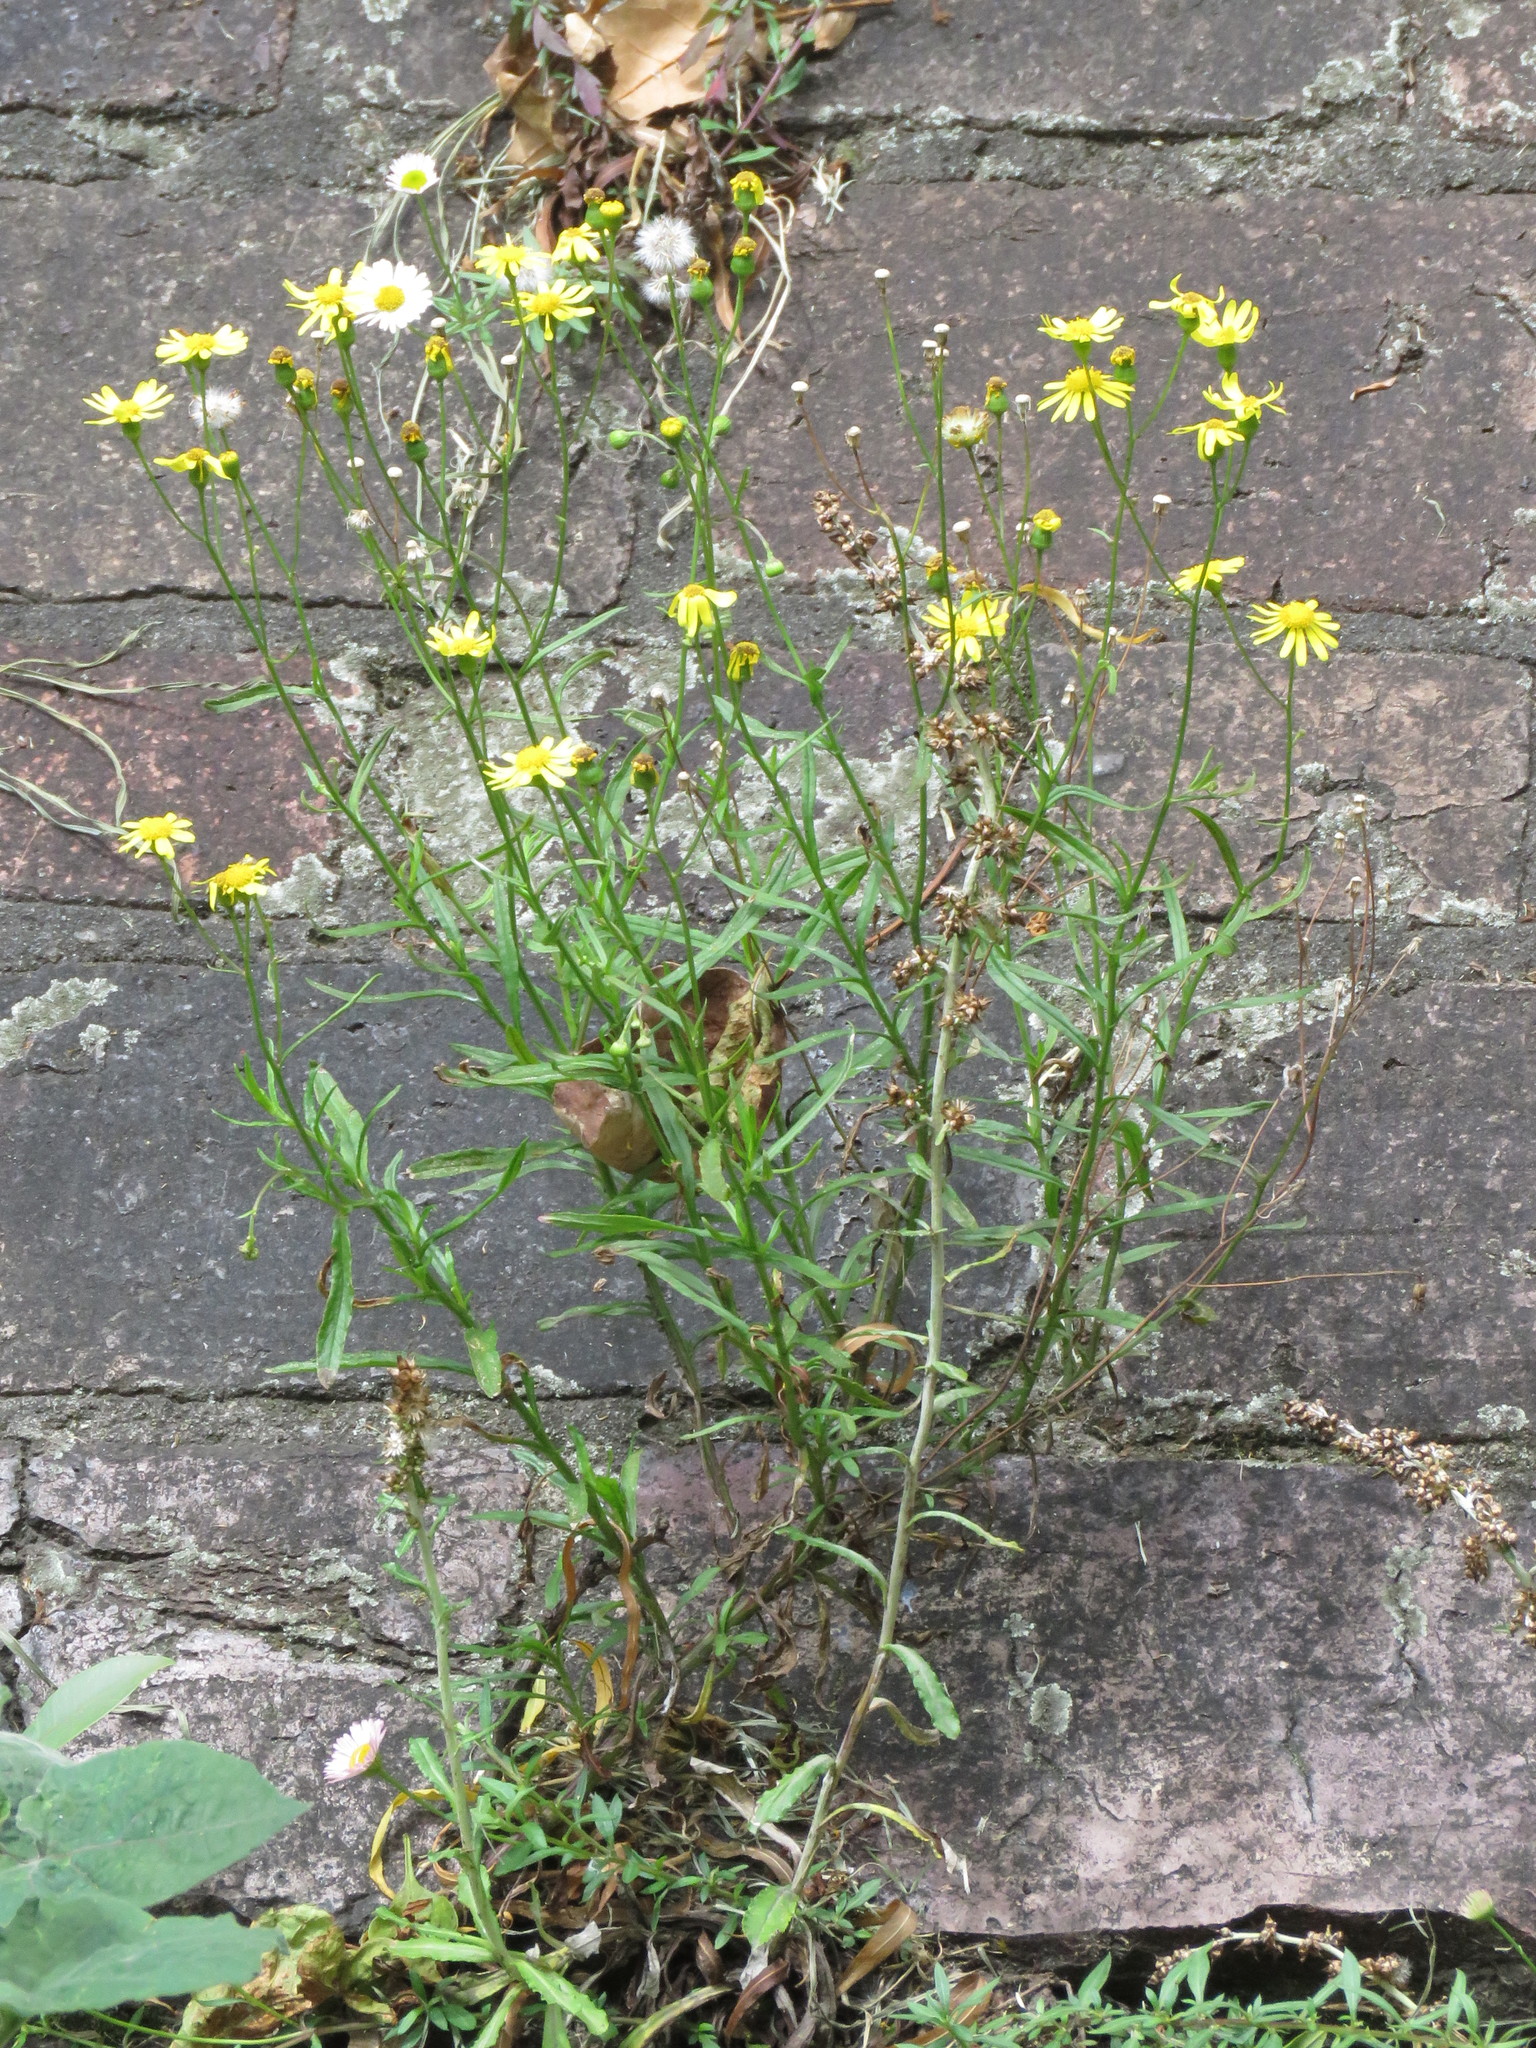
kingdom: Plantae
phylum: Tracheophyta
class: Magnoliopsida
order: Asterales
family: Asteraceae
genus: Senecio
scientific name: Senecio madagascariensis
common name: Madagascar ragwort
